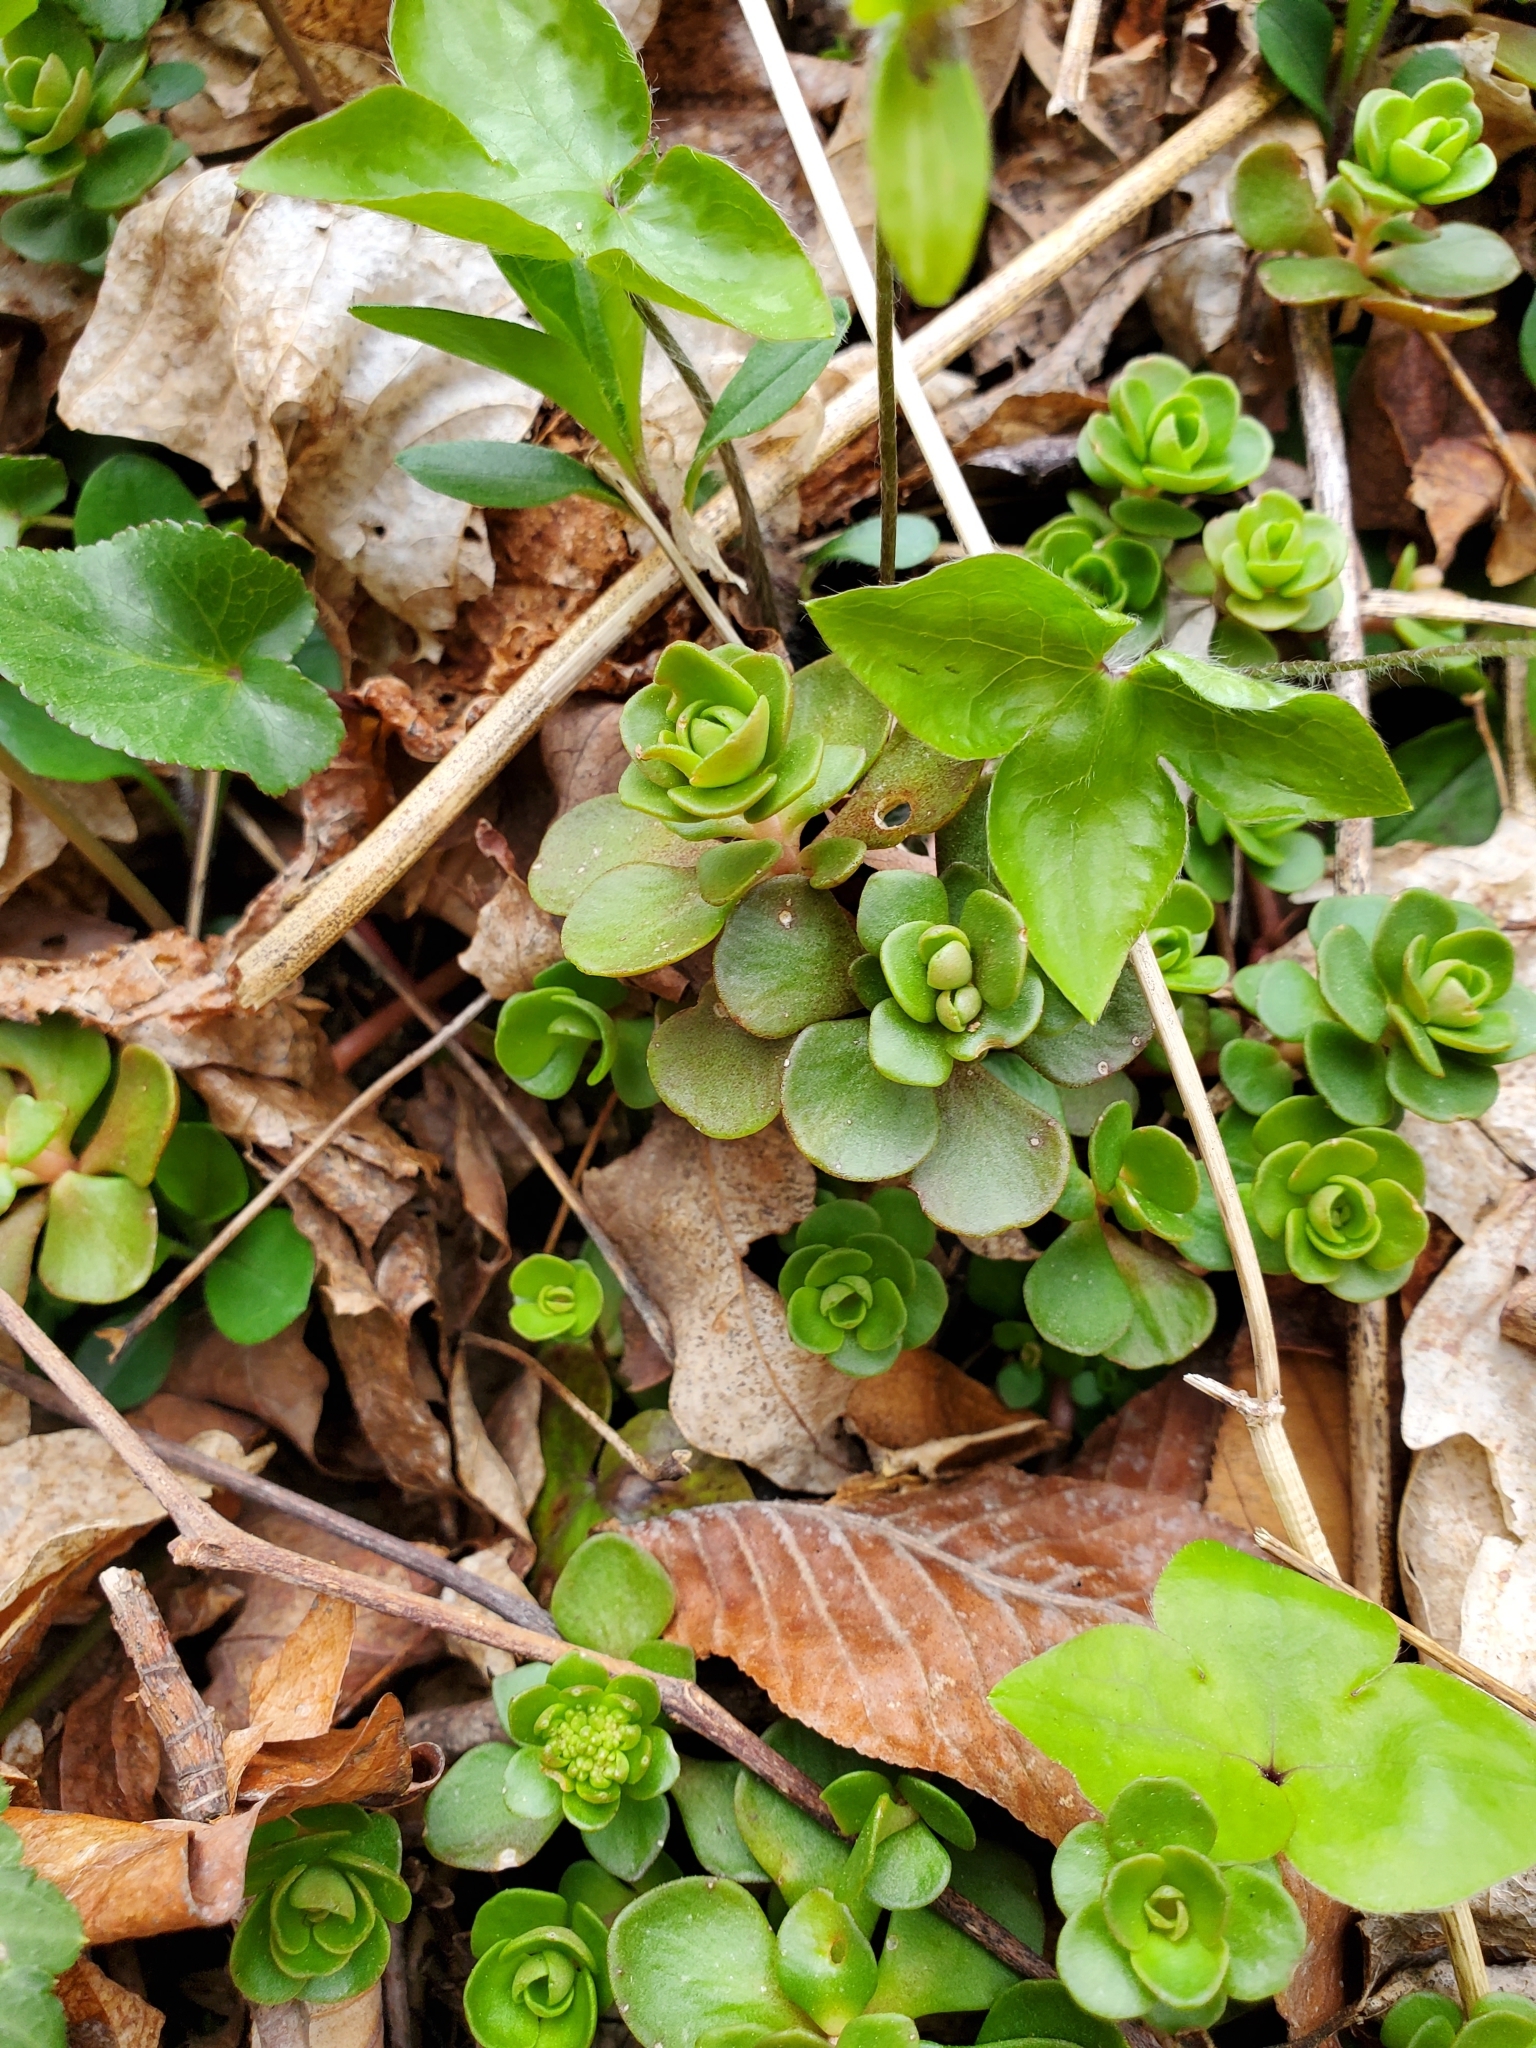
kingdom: Plantae
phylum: Tracheophyta
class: Magnoliopsida
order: Saxifragales
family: Crassulaceae
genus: Sedum
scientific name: Sedum ternatum
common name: Wild stonecrop
